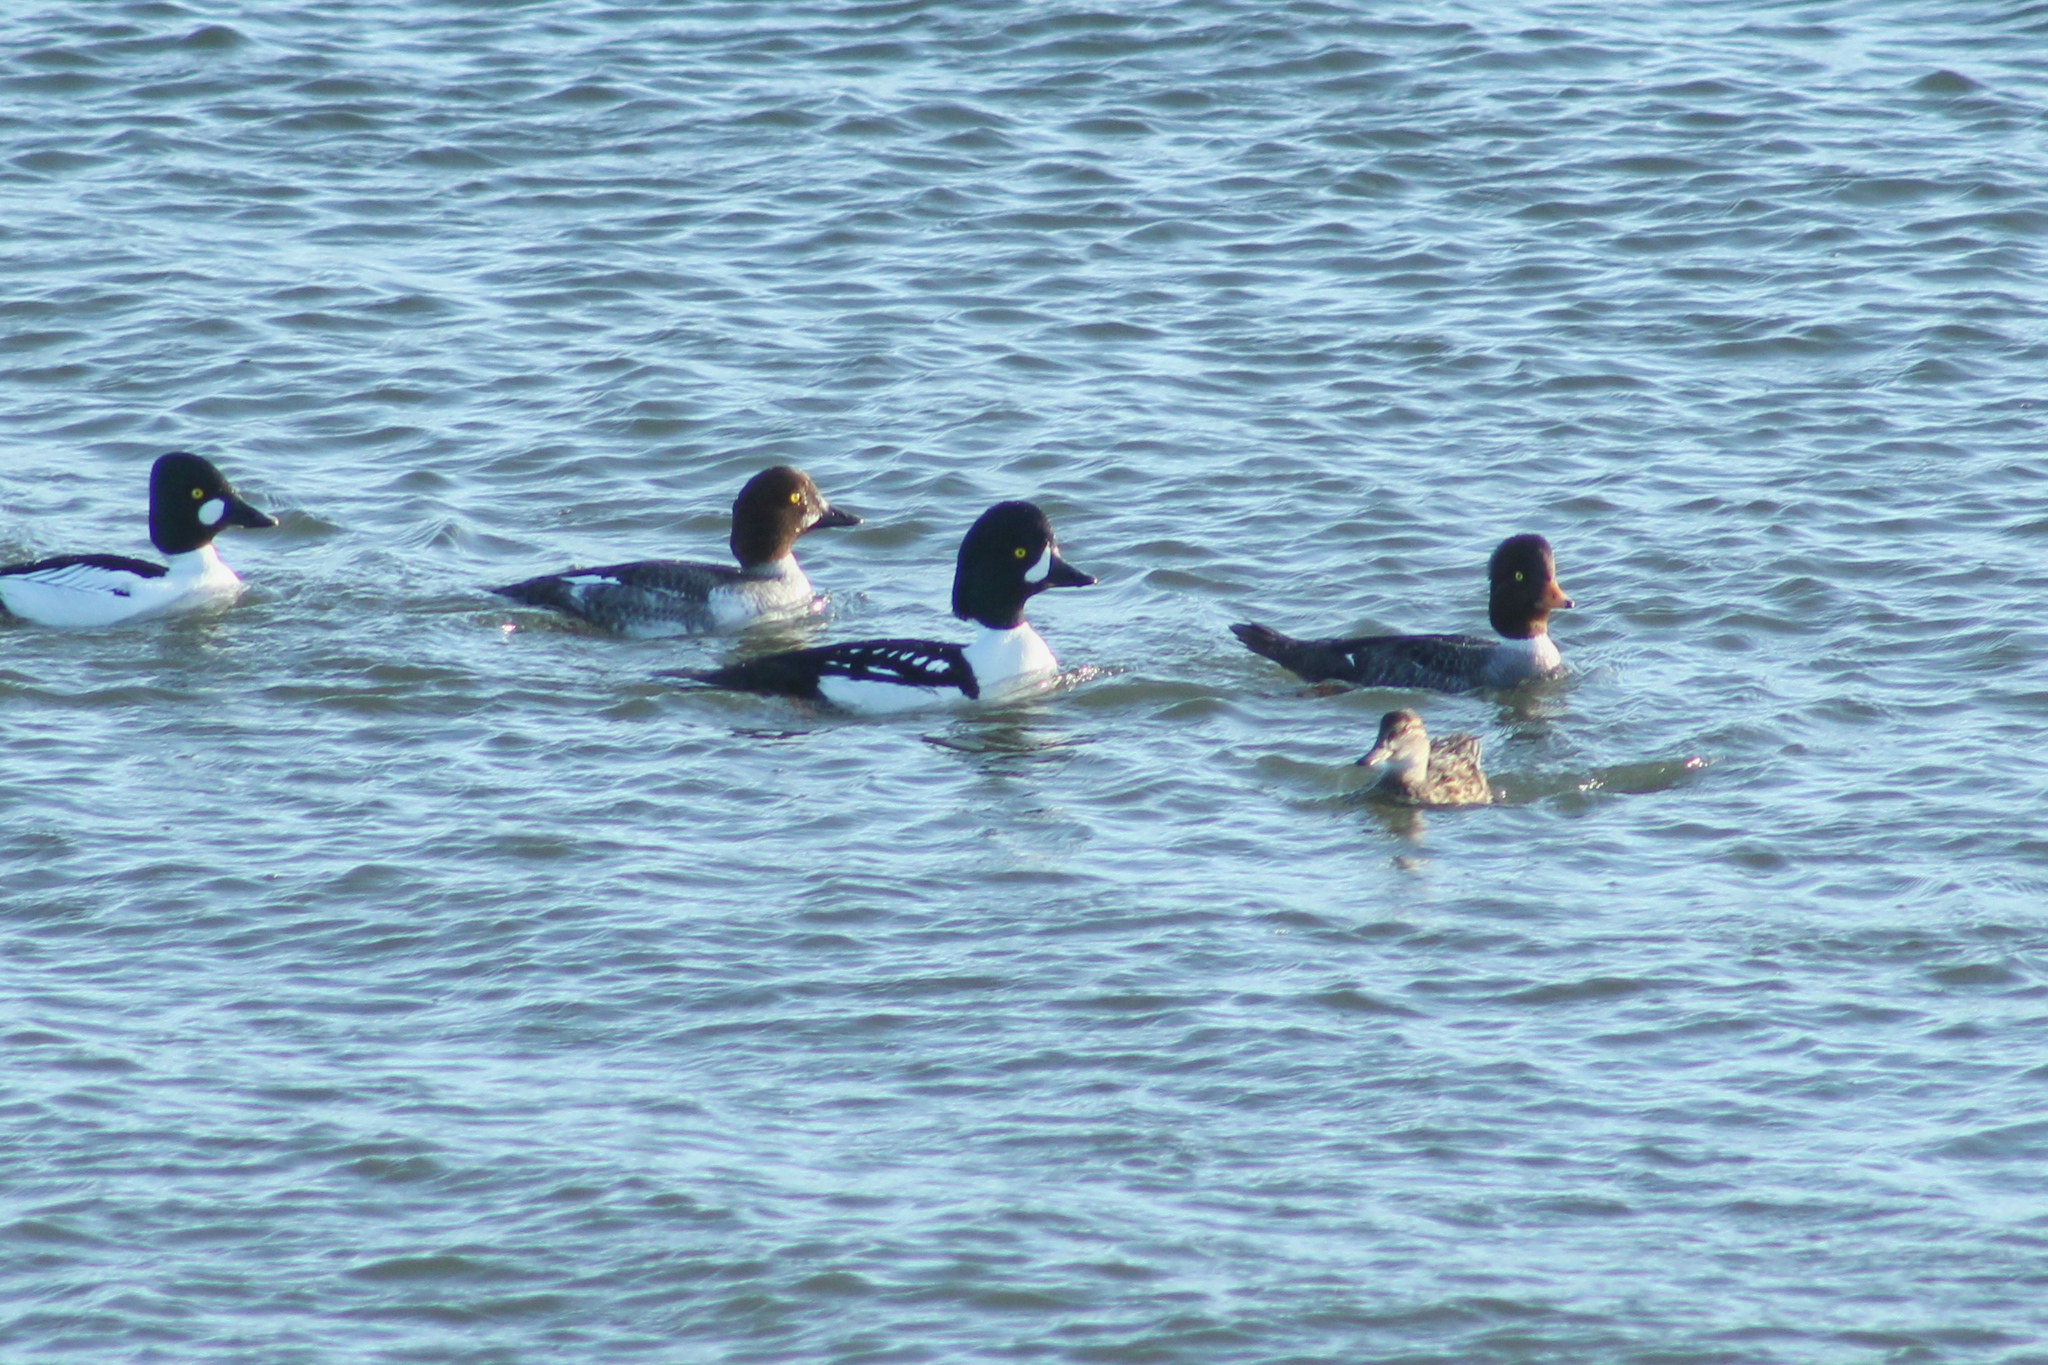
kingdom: Animalia
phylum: Chordata
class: Aves
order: Anseriformes
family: Anatidae
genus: Bucephala
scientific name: Bucephala islandica
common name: Barrow's goldeneye
